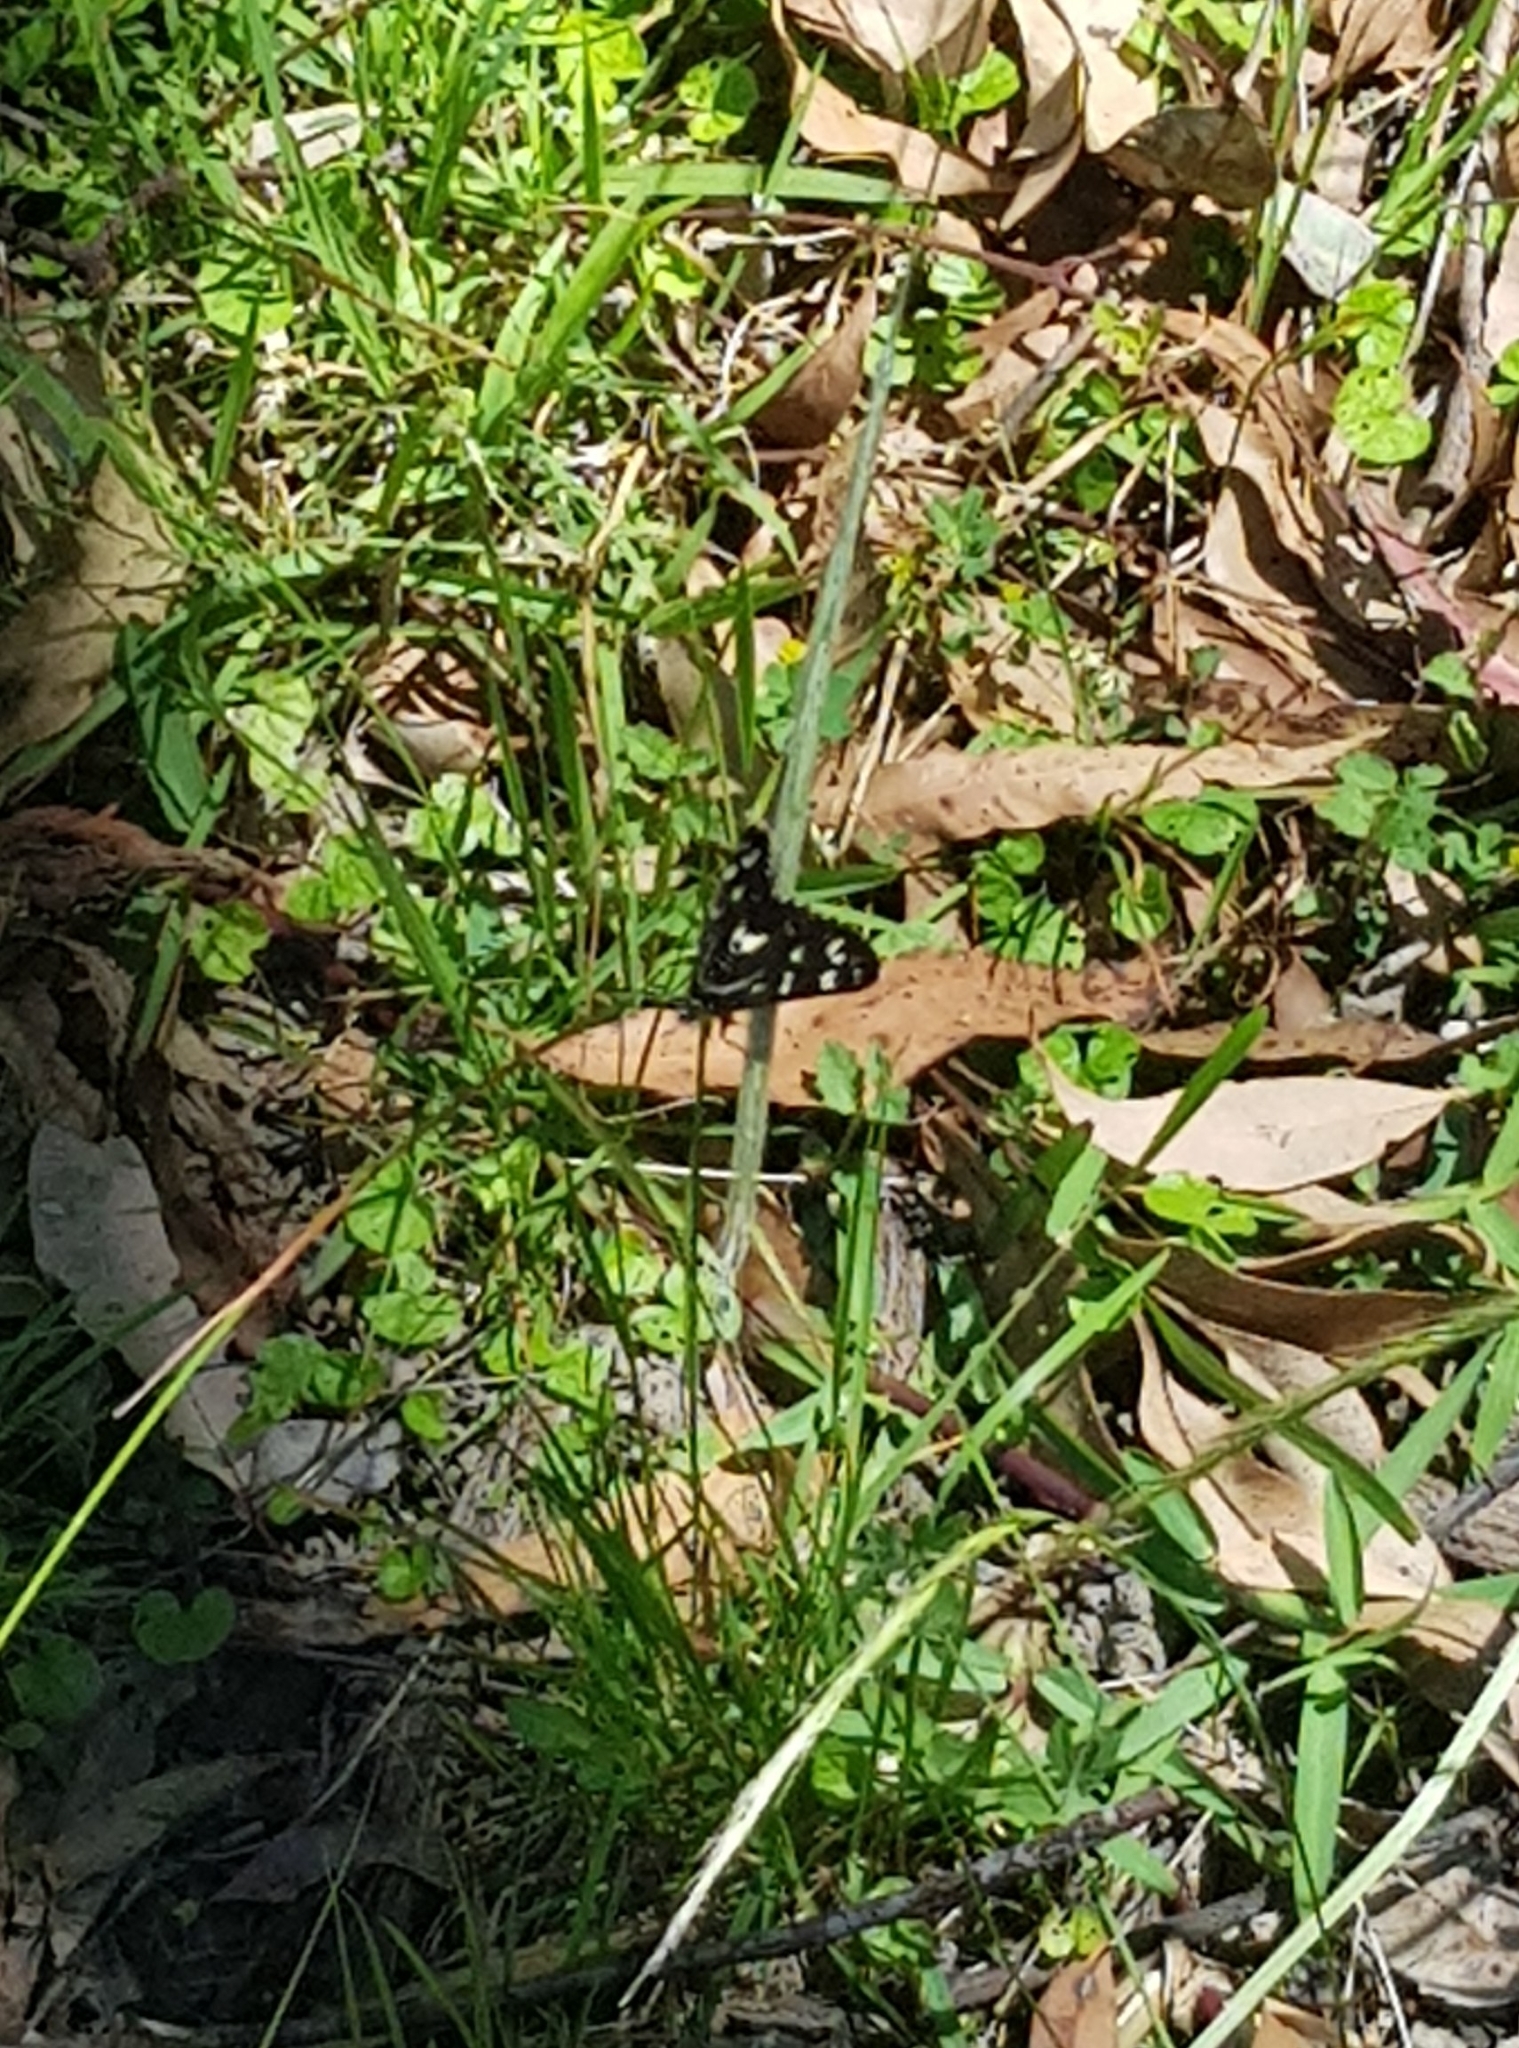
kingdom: Animalia
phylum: Arthropoda
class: Insecta
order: Lepidoptera
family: Noctuidae
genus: Cruria
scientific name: Cruria synopla
